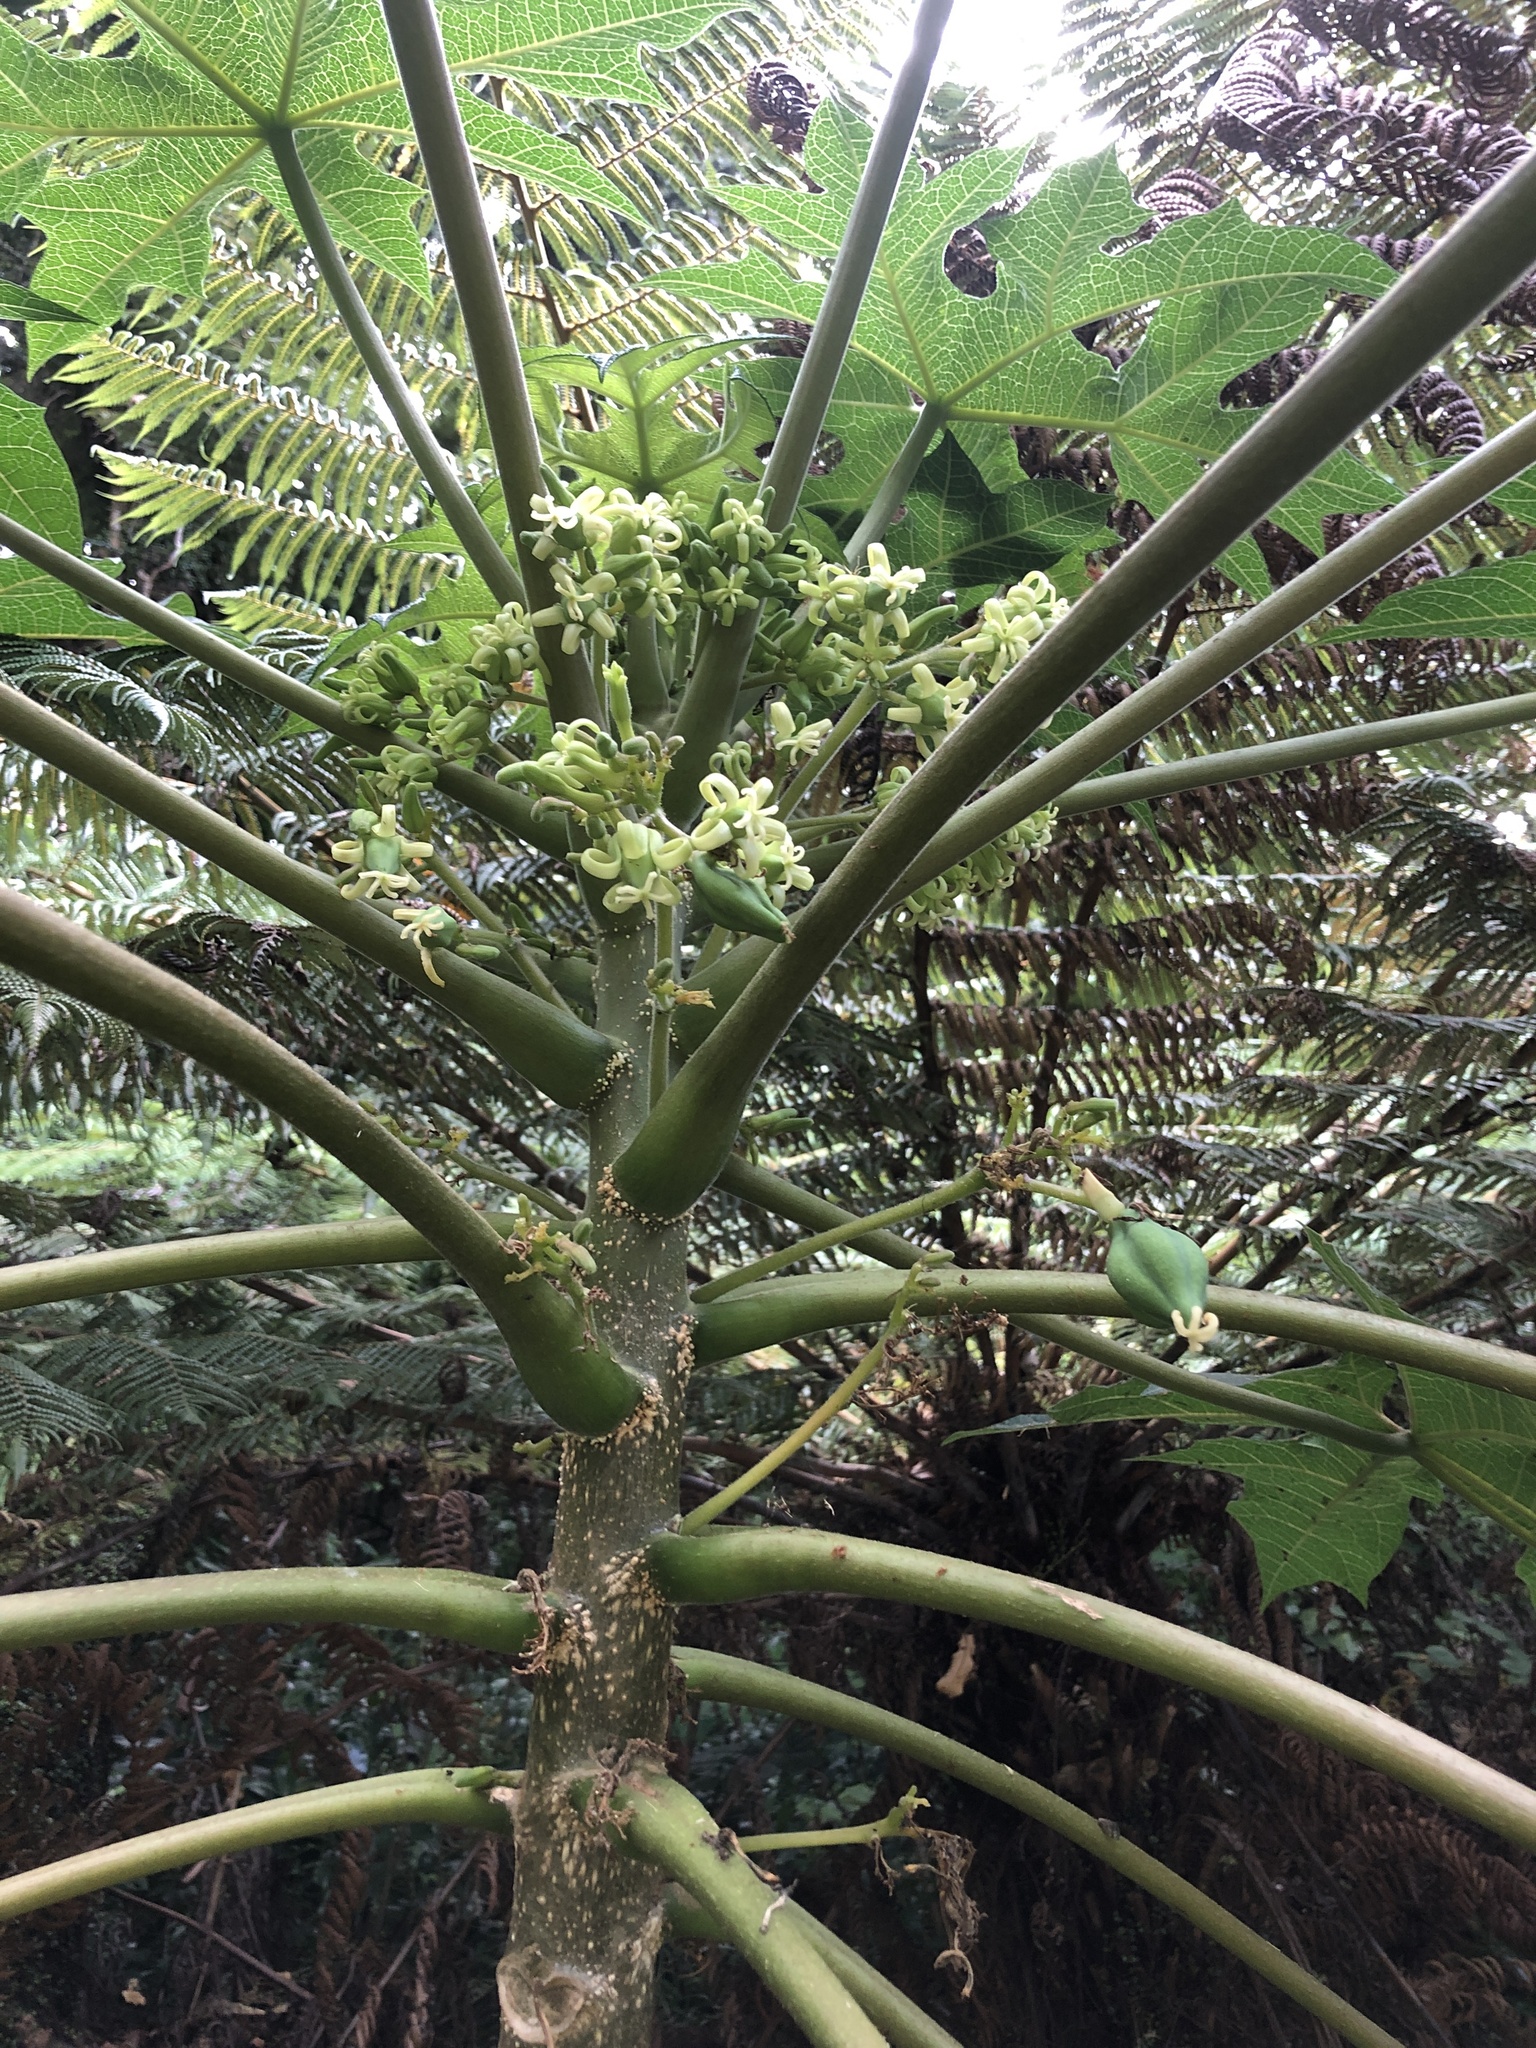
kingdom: Plantae
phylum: Tracheophyta
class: Magnoliopsida
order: Apiales
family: Araliaceae
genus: Tetrapanax
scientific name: Tetrapanax papyrifer
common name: Rice-paper plant
